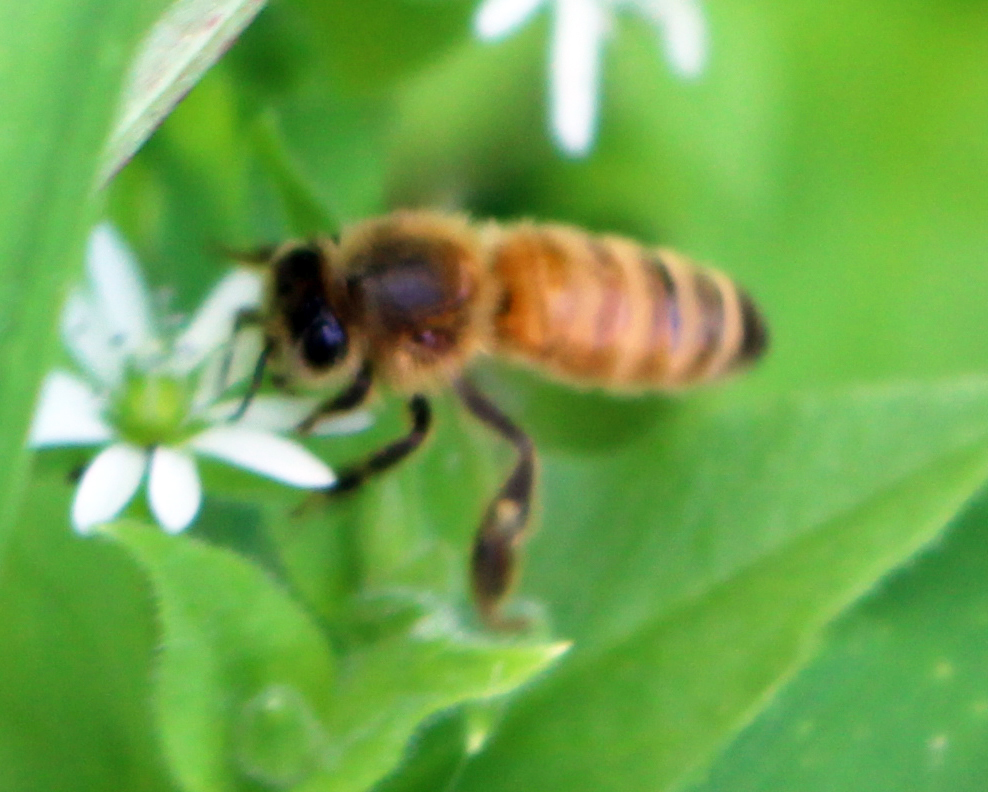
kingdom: Animalia
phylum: Arthropoda
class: Insecta
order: Hymenoptera
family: Apidae
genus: Apis
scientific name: Apis mellifera
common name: Honey bee
